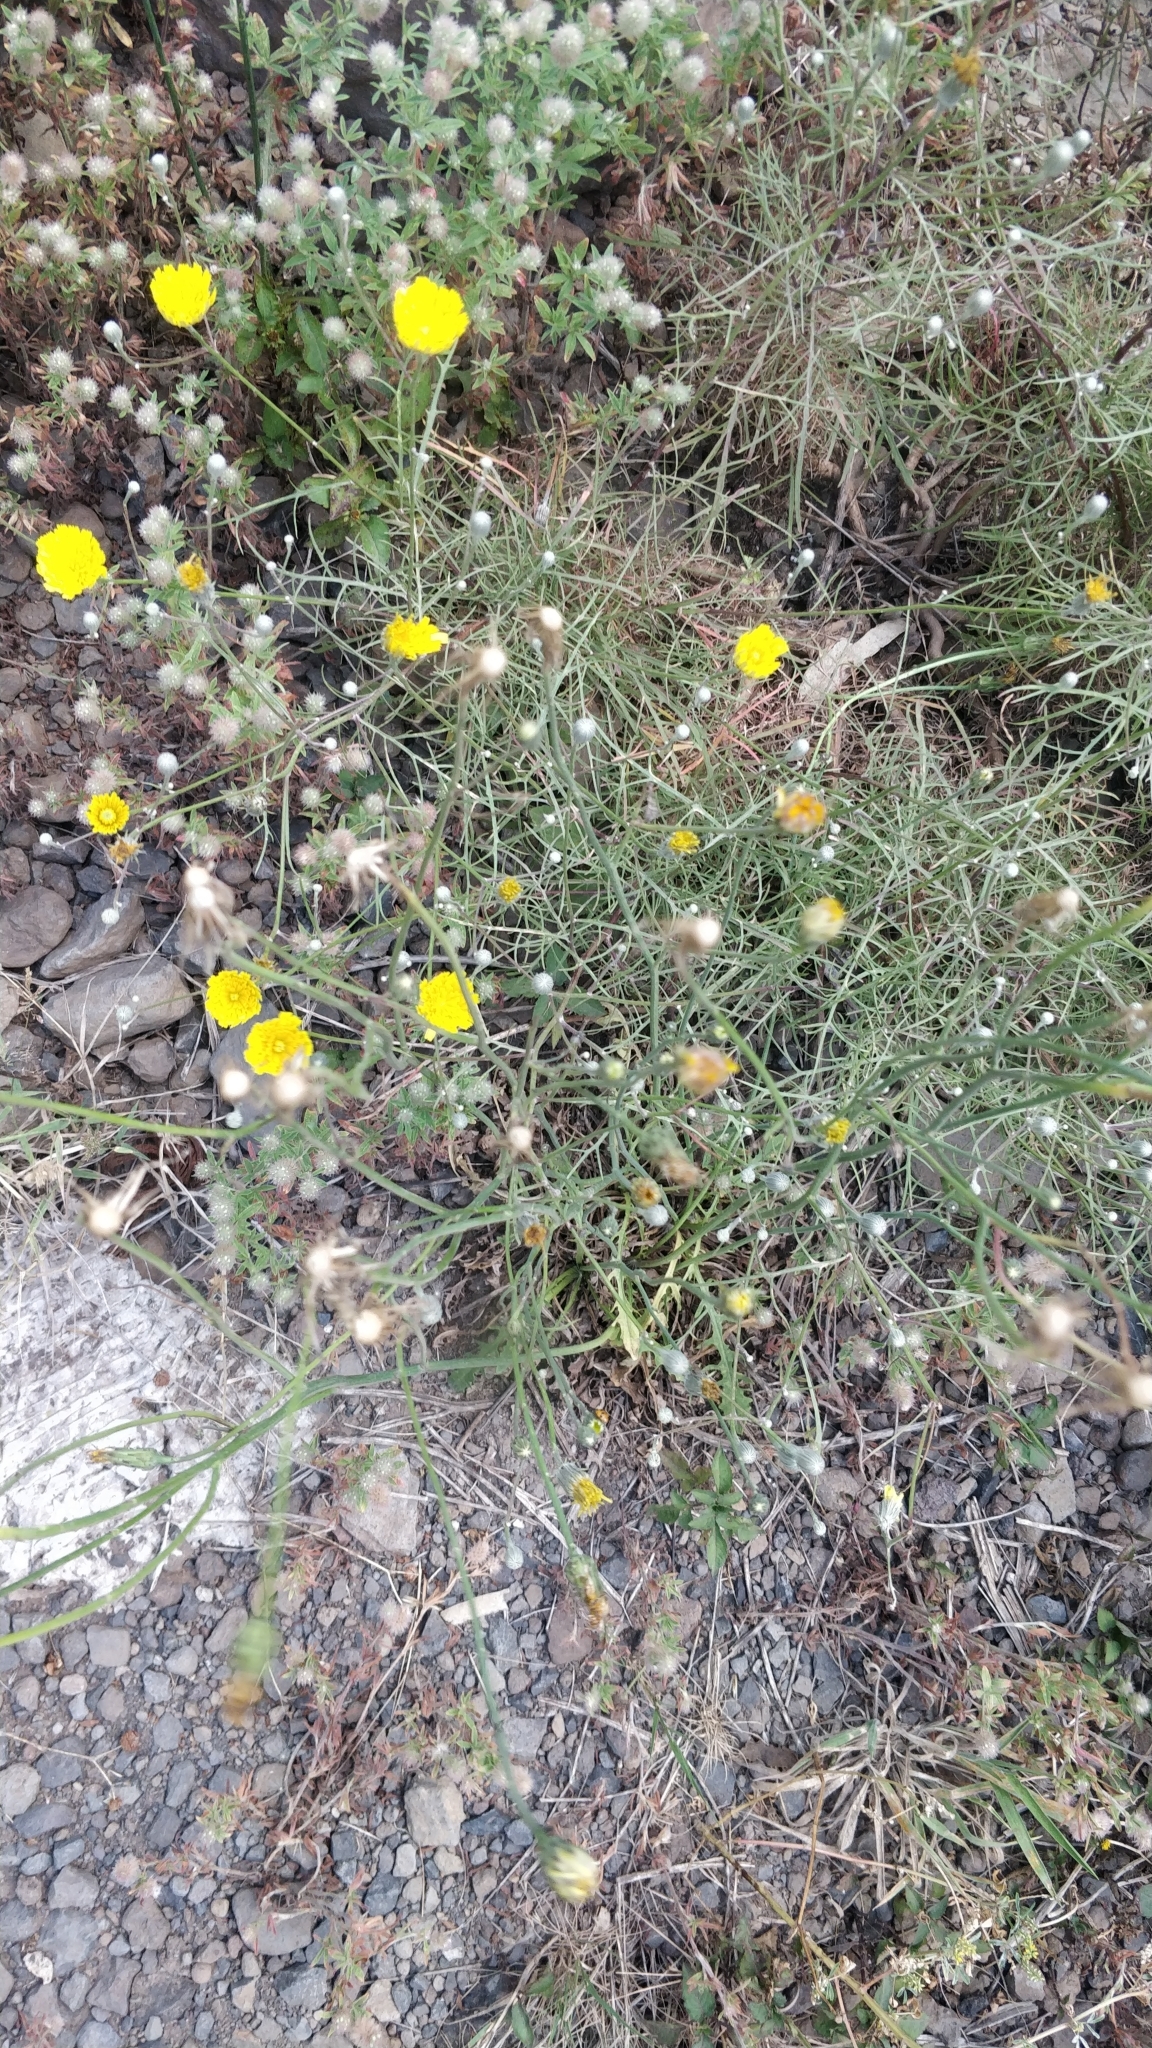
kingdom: Plantae
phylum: Tracheophyta
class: Magnoliopsida
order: Asterales
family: Asteraceae
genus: Tolpis
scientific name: Tolpis succulenta
